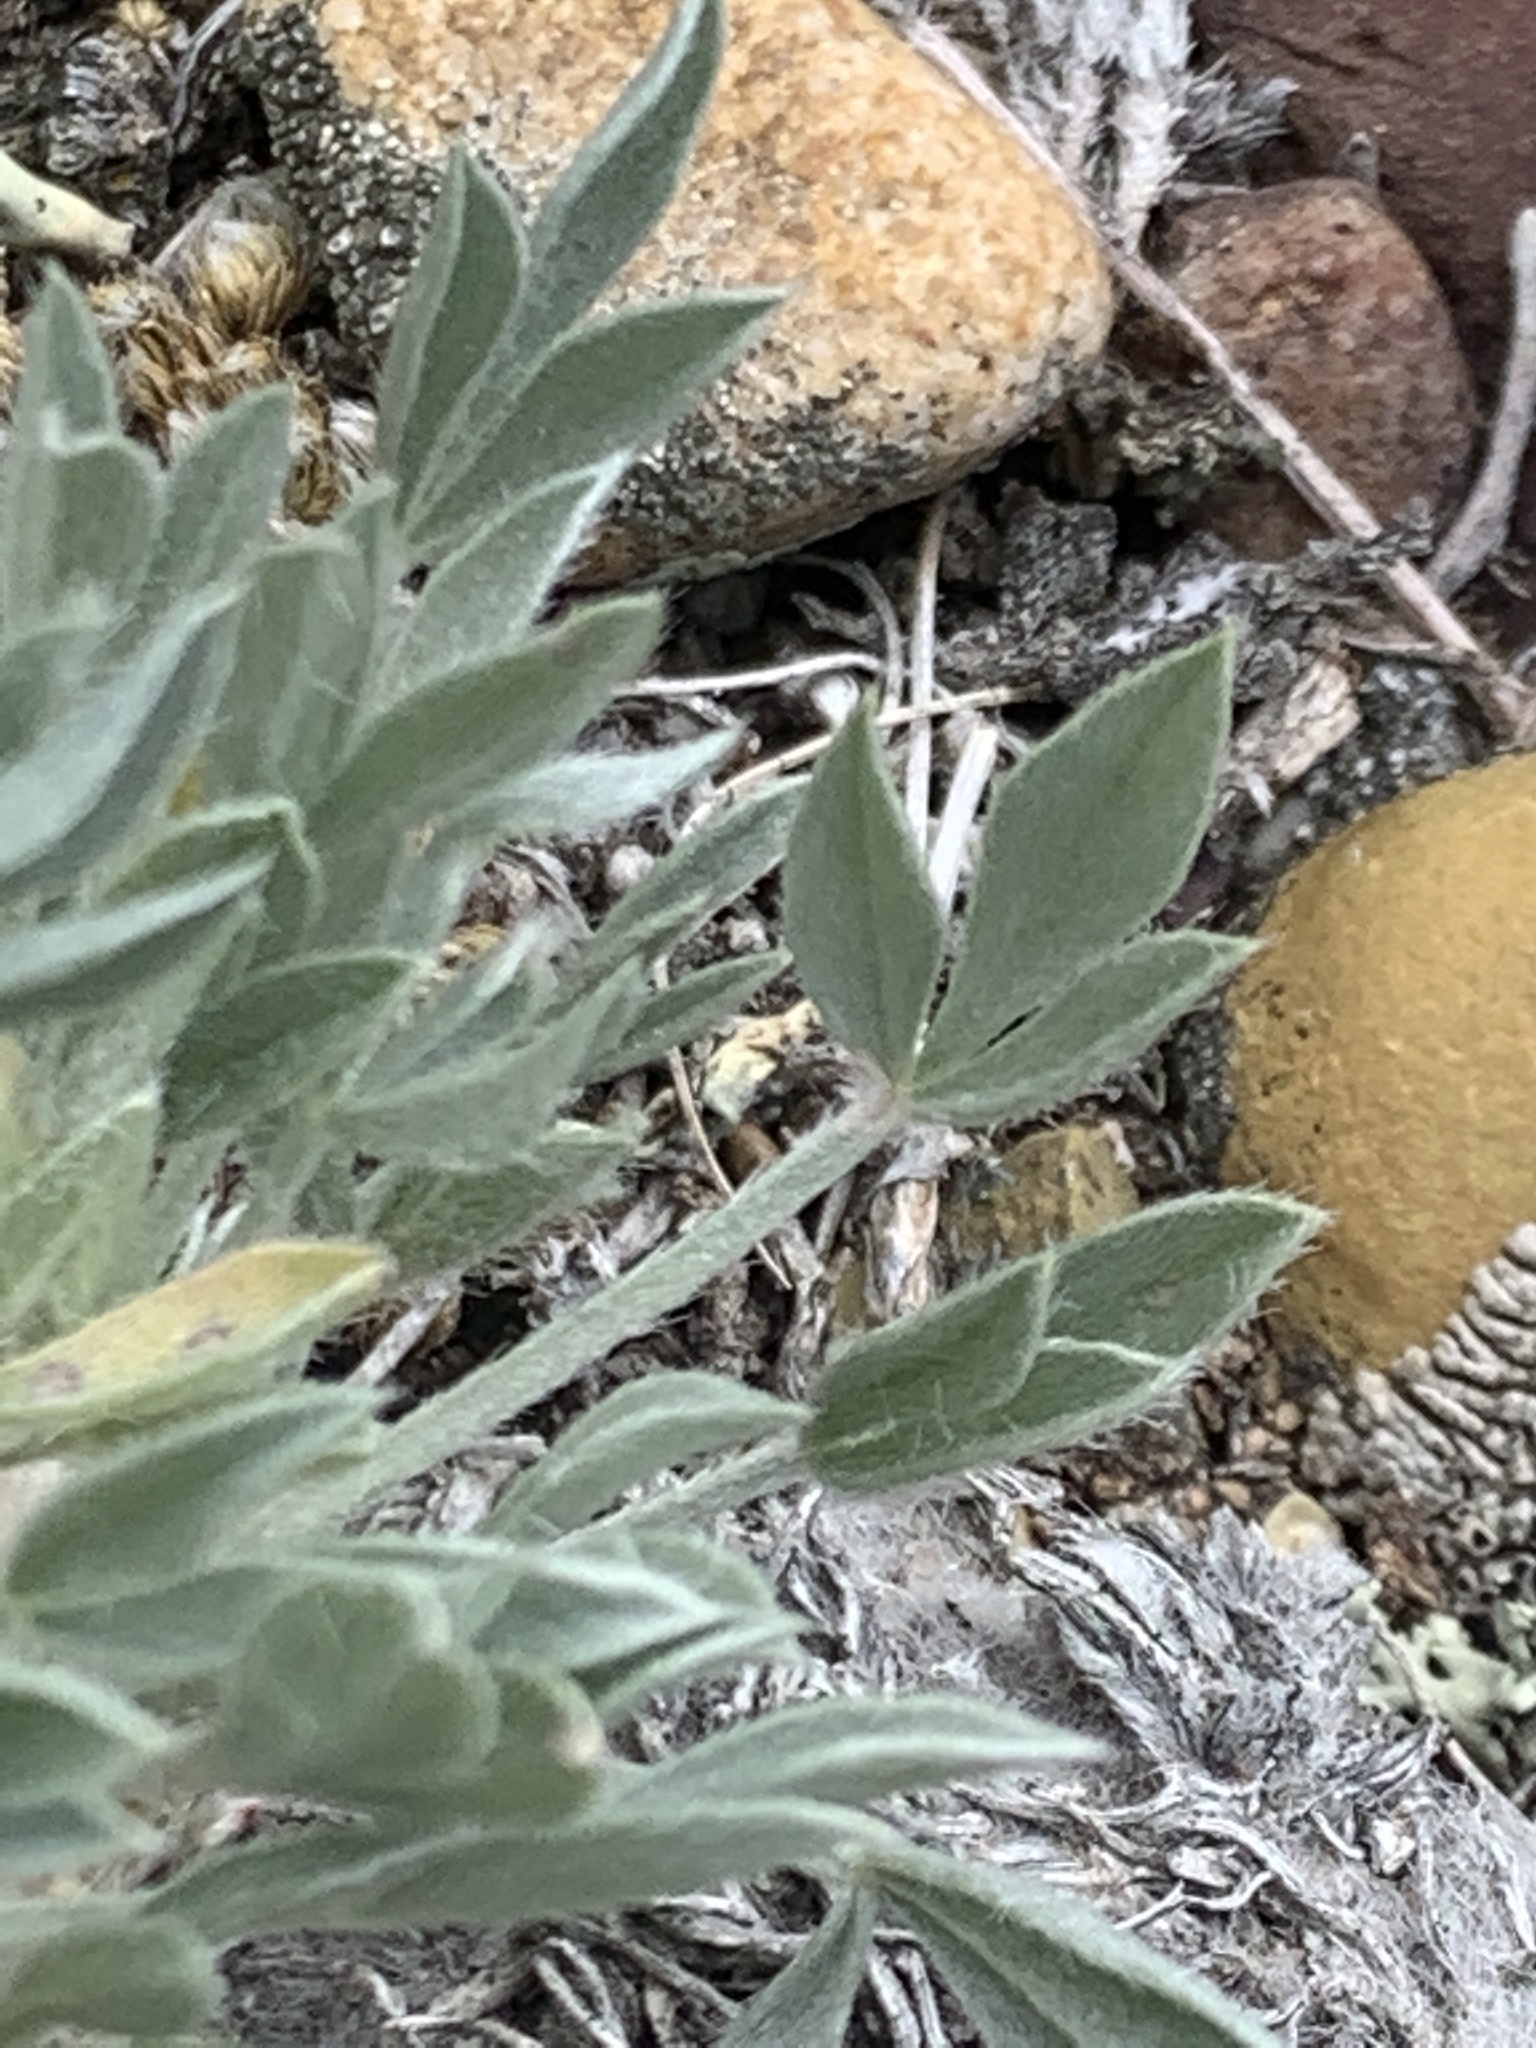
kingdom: Plantae
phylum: Tracheophyta
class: Magnoliopsida
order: Fabales
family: Fabaceae
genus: Astragalus
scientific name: Astragalus gilviflorus
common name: Cushion milk-vetch
